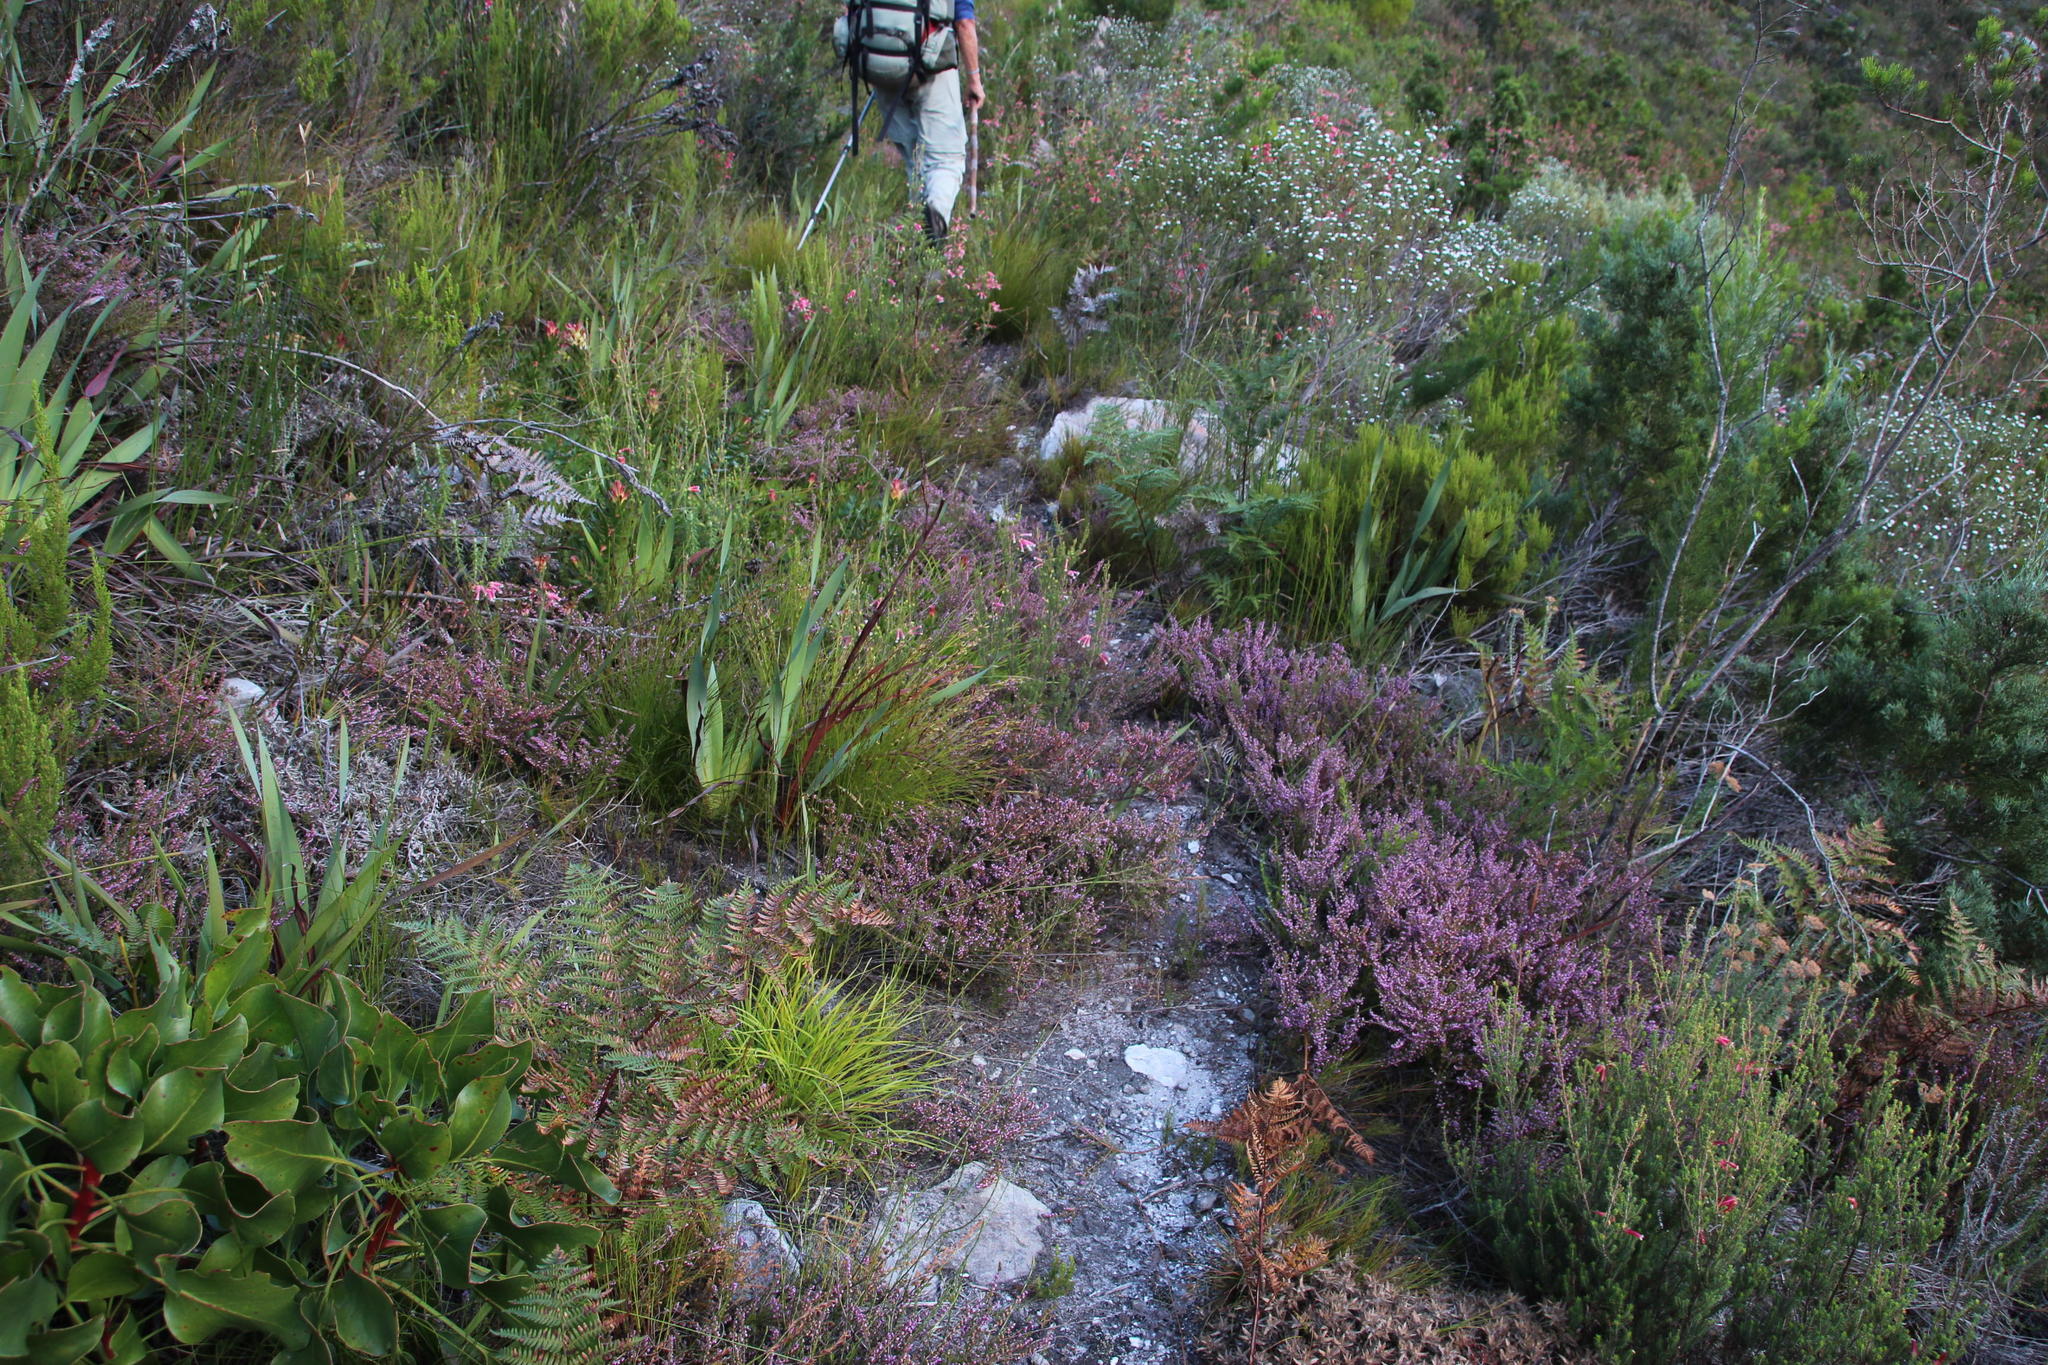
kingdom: Plantae
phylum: Tracheophyta
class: Magnoliopsida
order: Ericales
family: Ericaceae
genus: Erica
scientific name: Erica uberiflora
